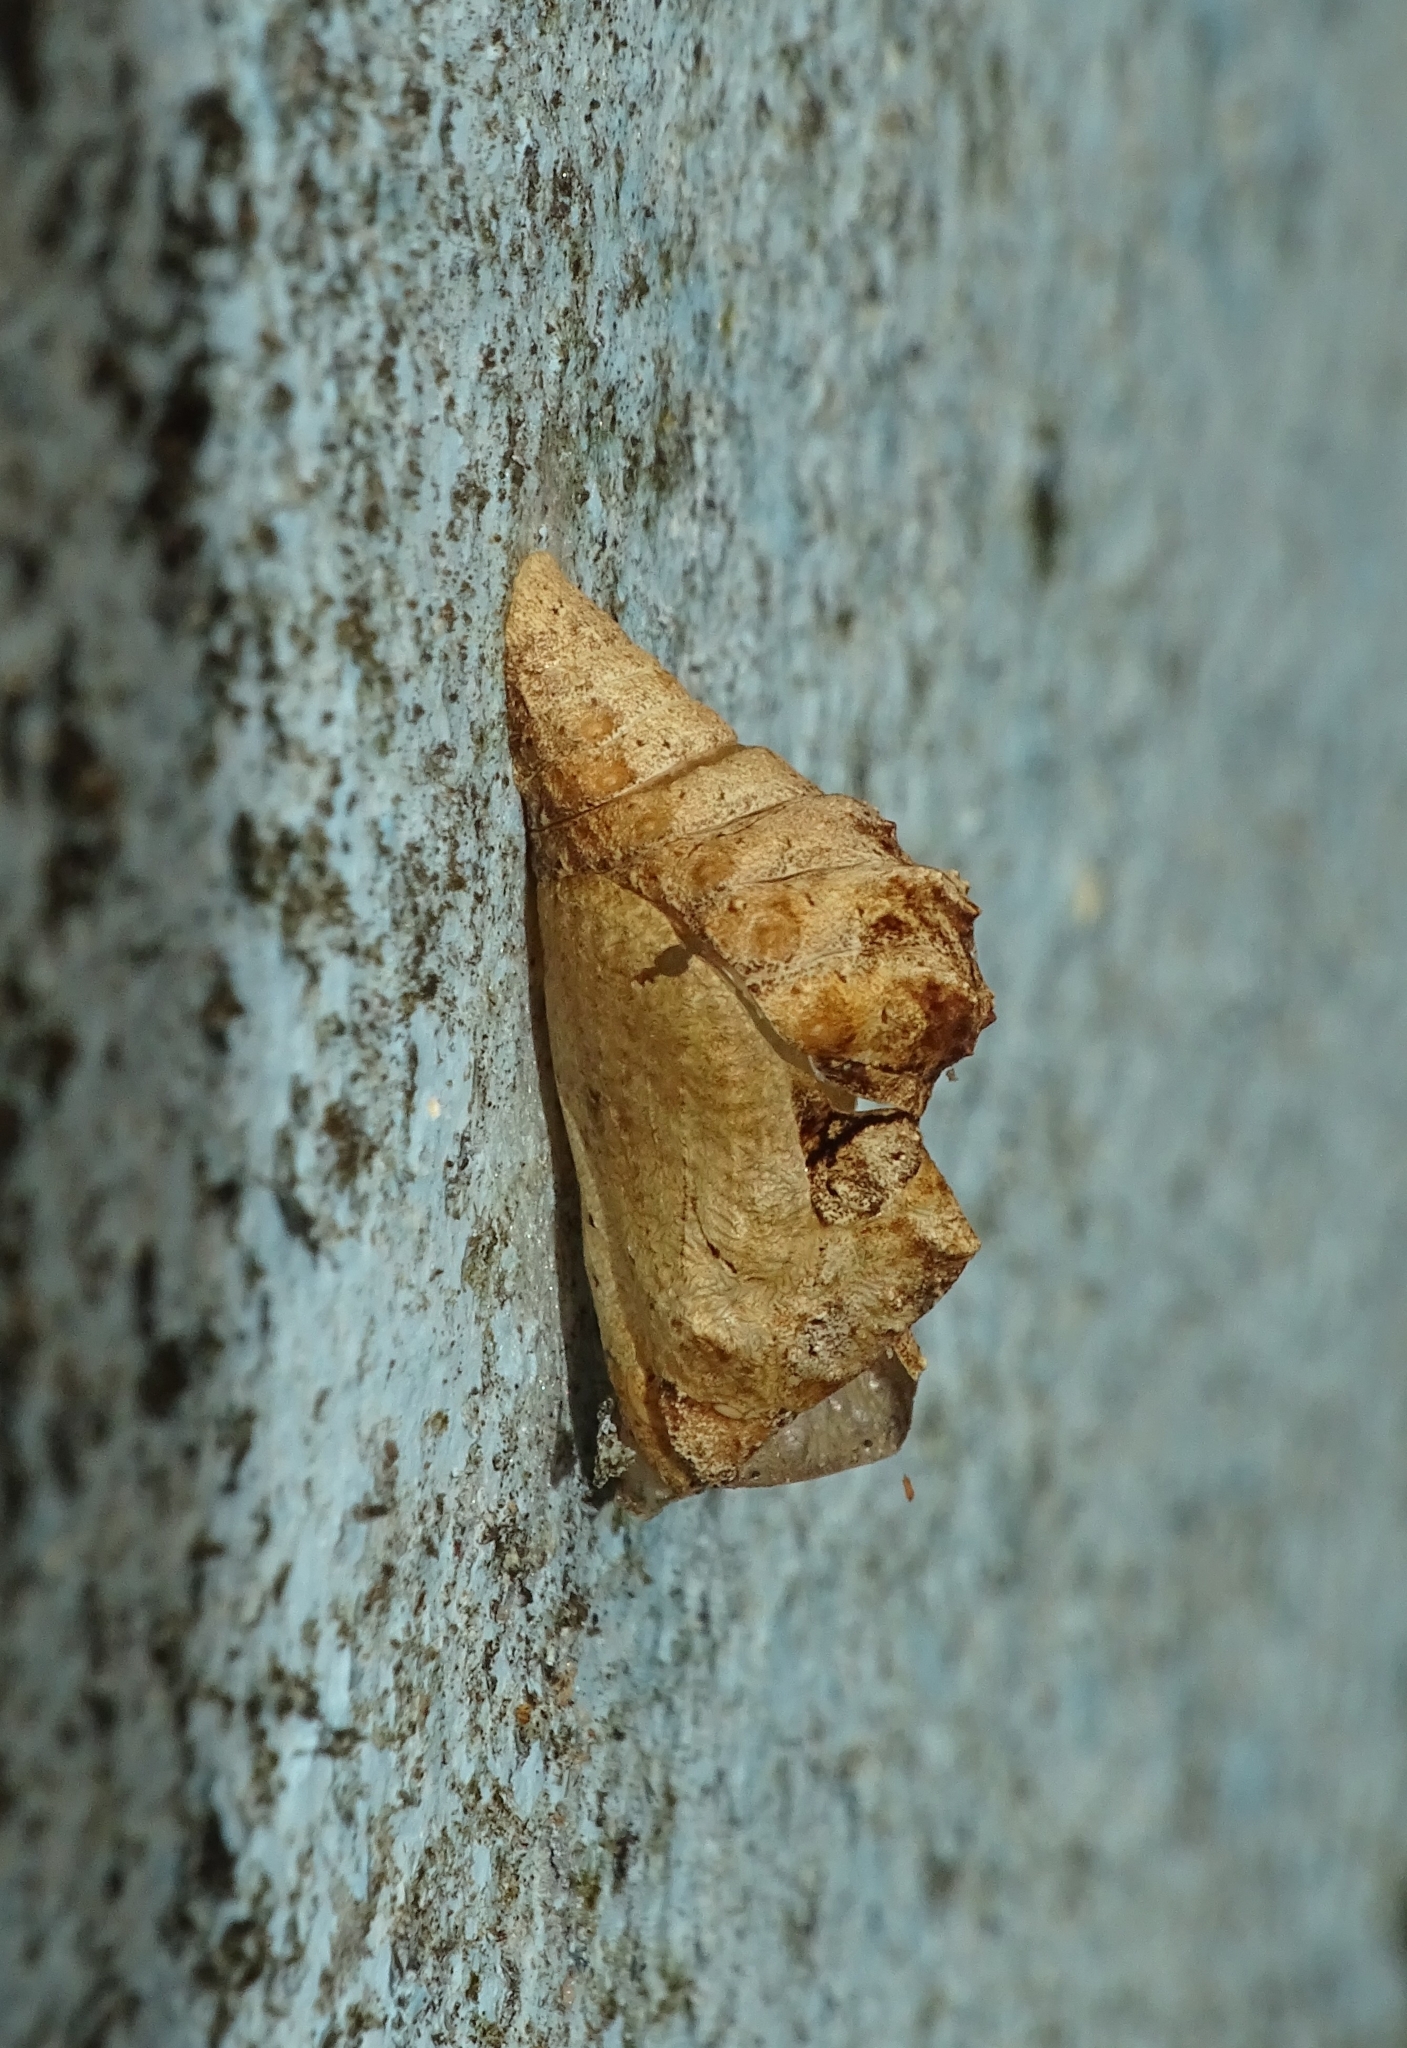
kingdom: Animalia
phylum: Arthropoda
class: Insecta
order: Lepidoptera
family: Lycaenidae
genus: Tajuria
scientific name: Tajuria cippus
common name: Peacock royal
